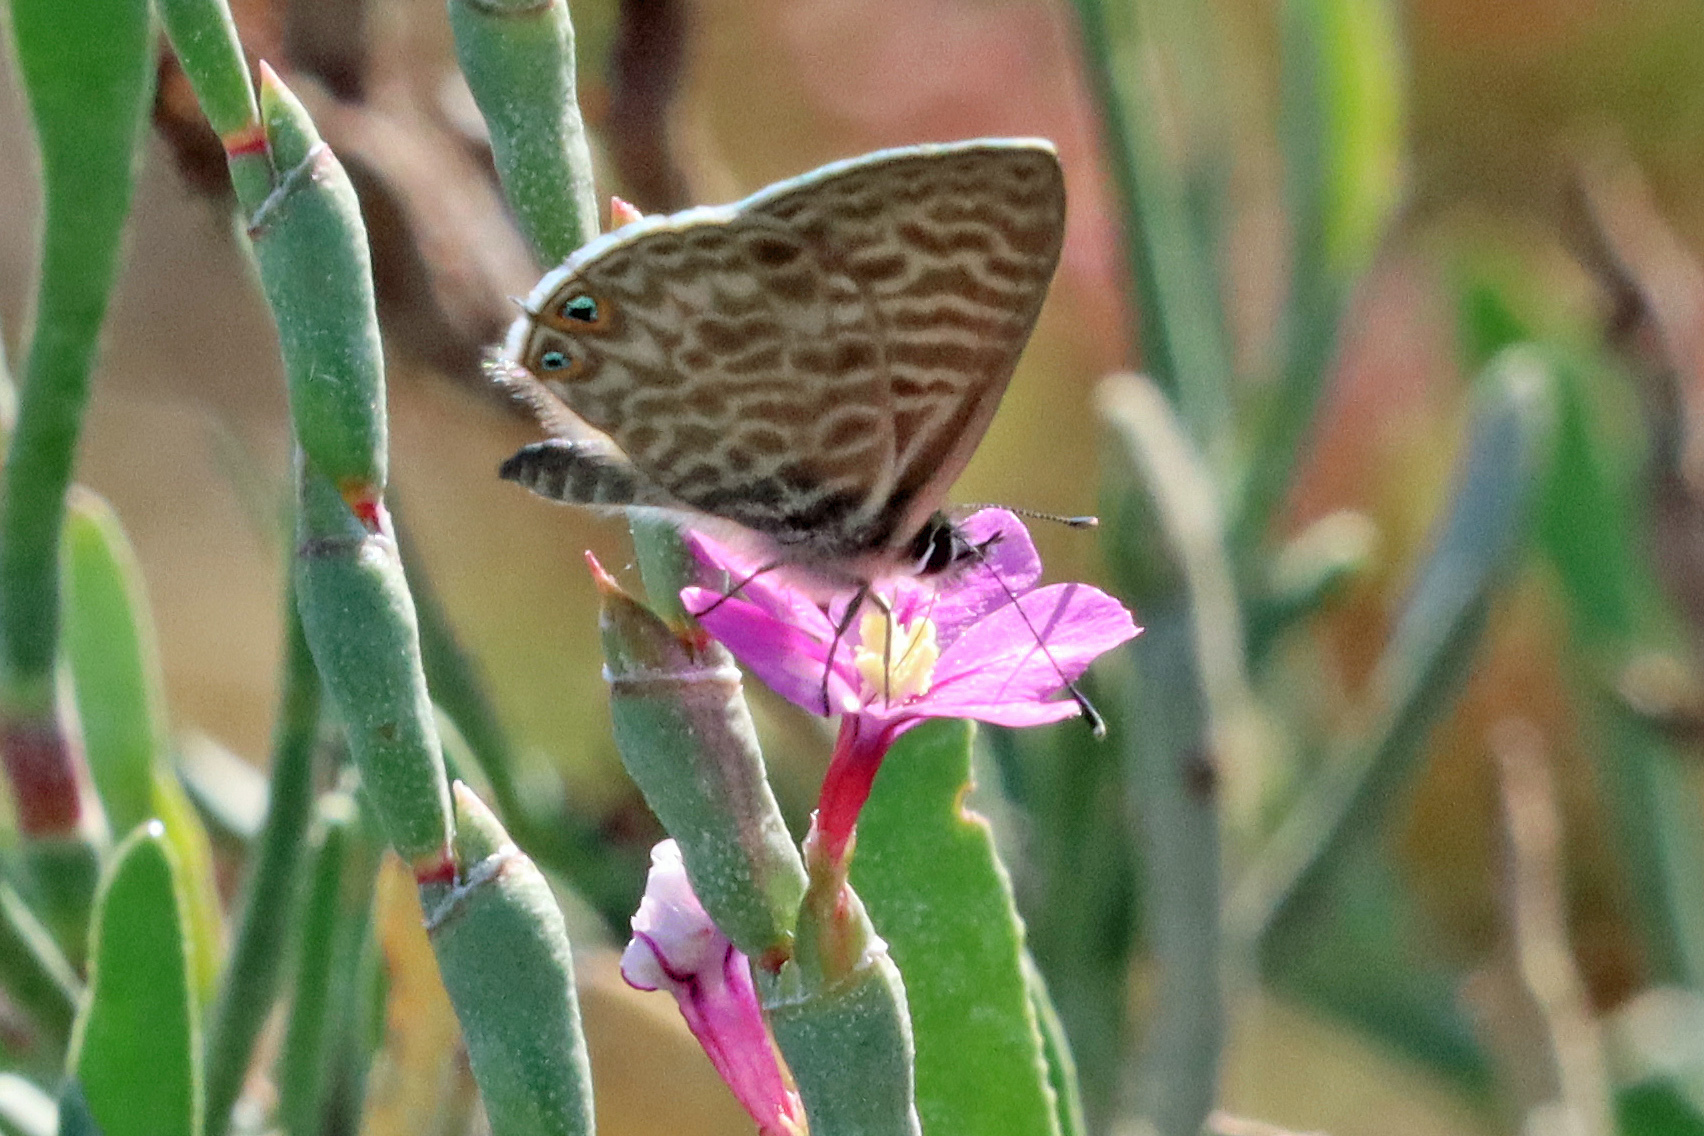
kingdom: Animalia
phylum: Arthropoda
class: Insecta
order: Lepidoptera
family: Lycaenidae
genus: Leptotes
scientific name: Leptotes pirithous
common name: Lang's short-tailed blue
